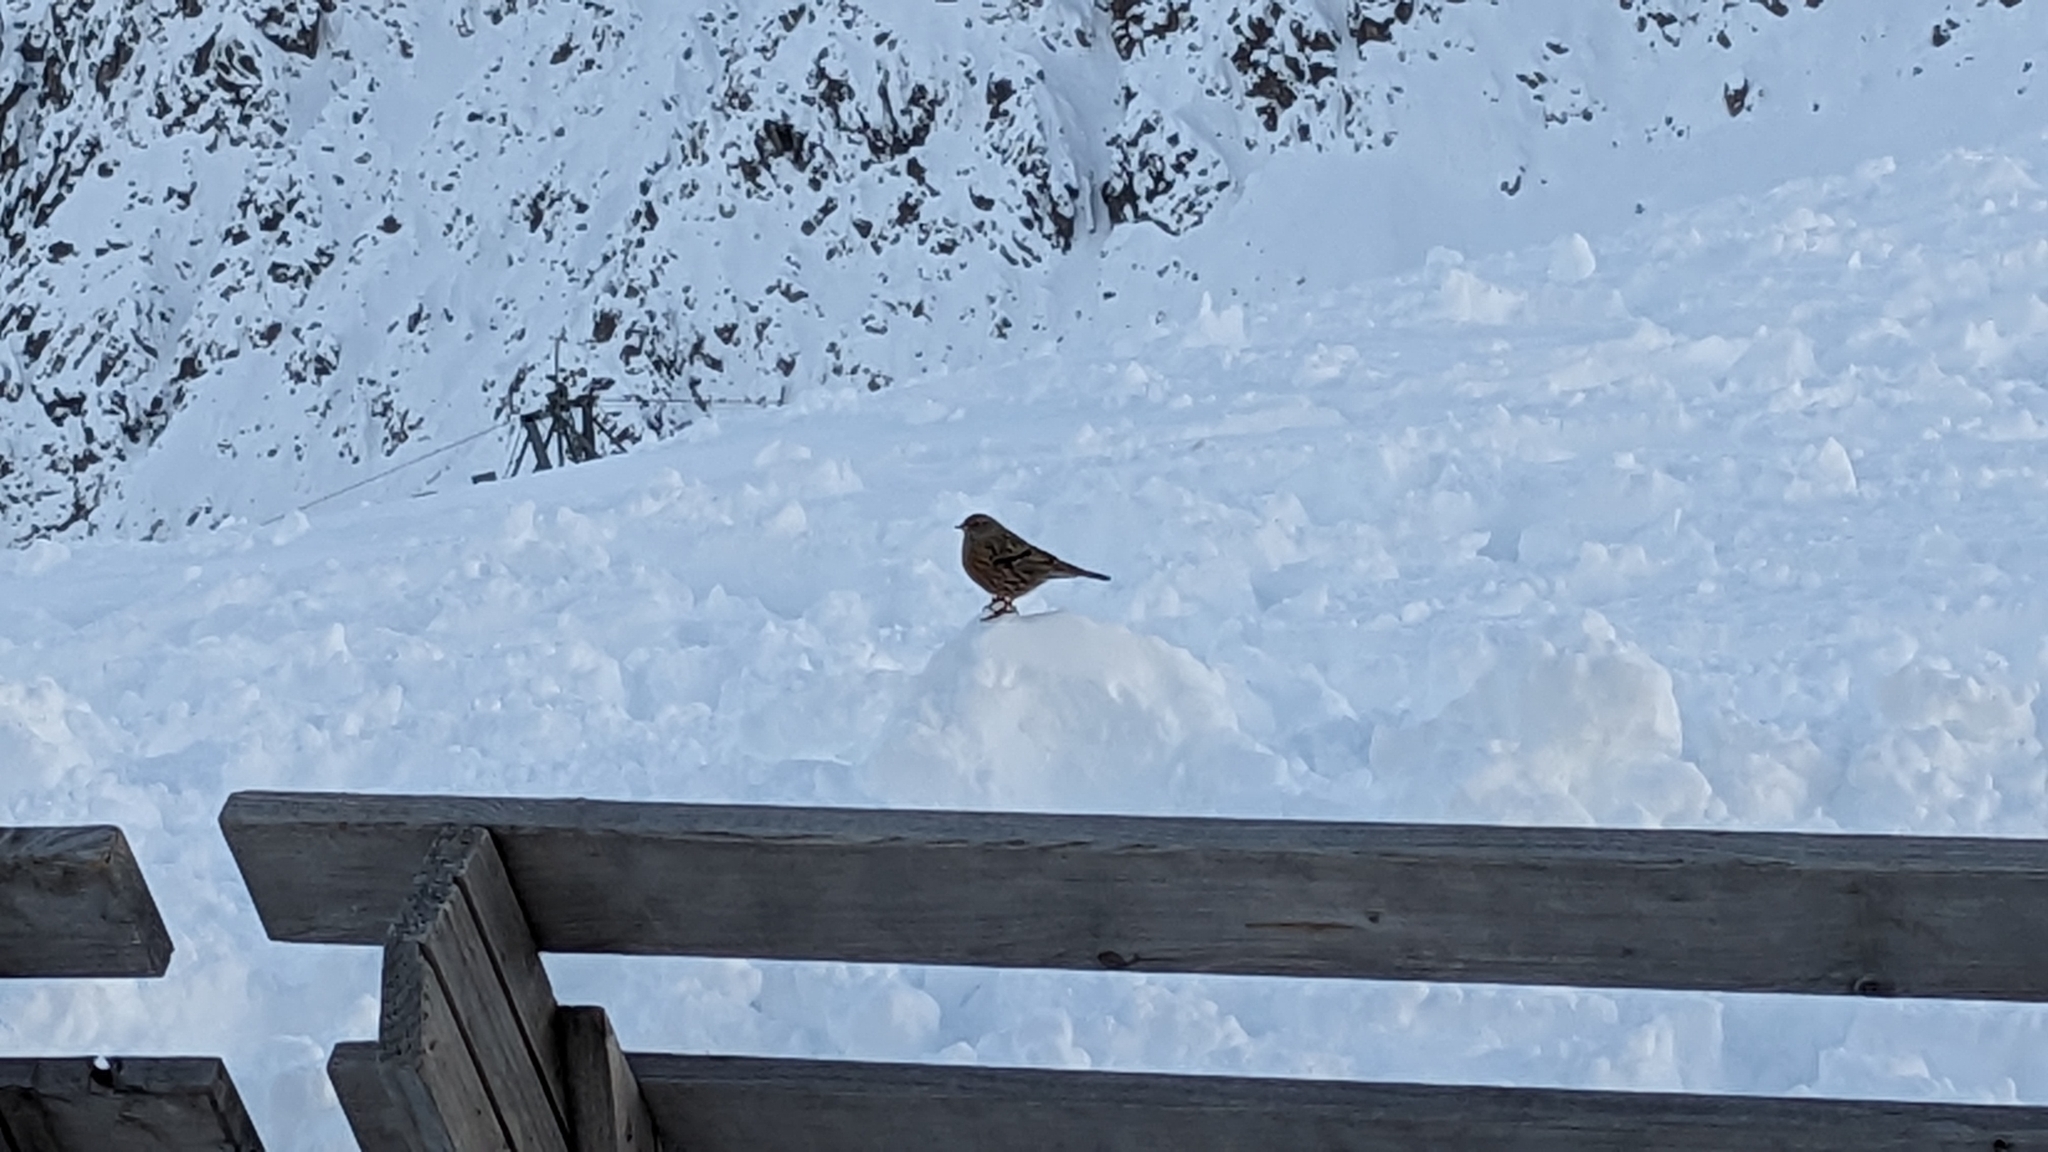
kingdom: Animalia
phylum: Chordata
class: Aves
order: Passeriformes
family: Prunellidae
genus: Prunella
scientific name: Prunella collaris
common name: Alpine accentor
